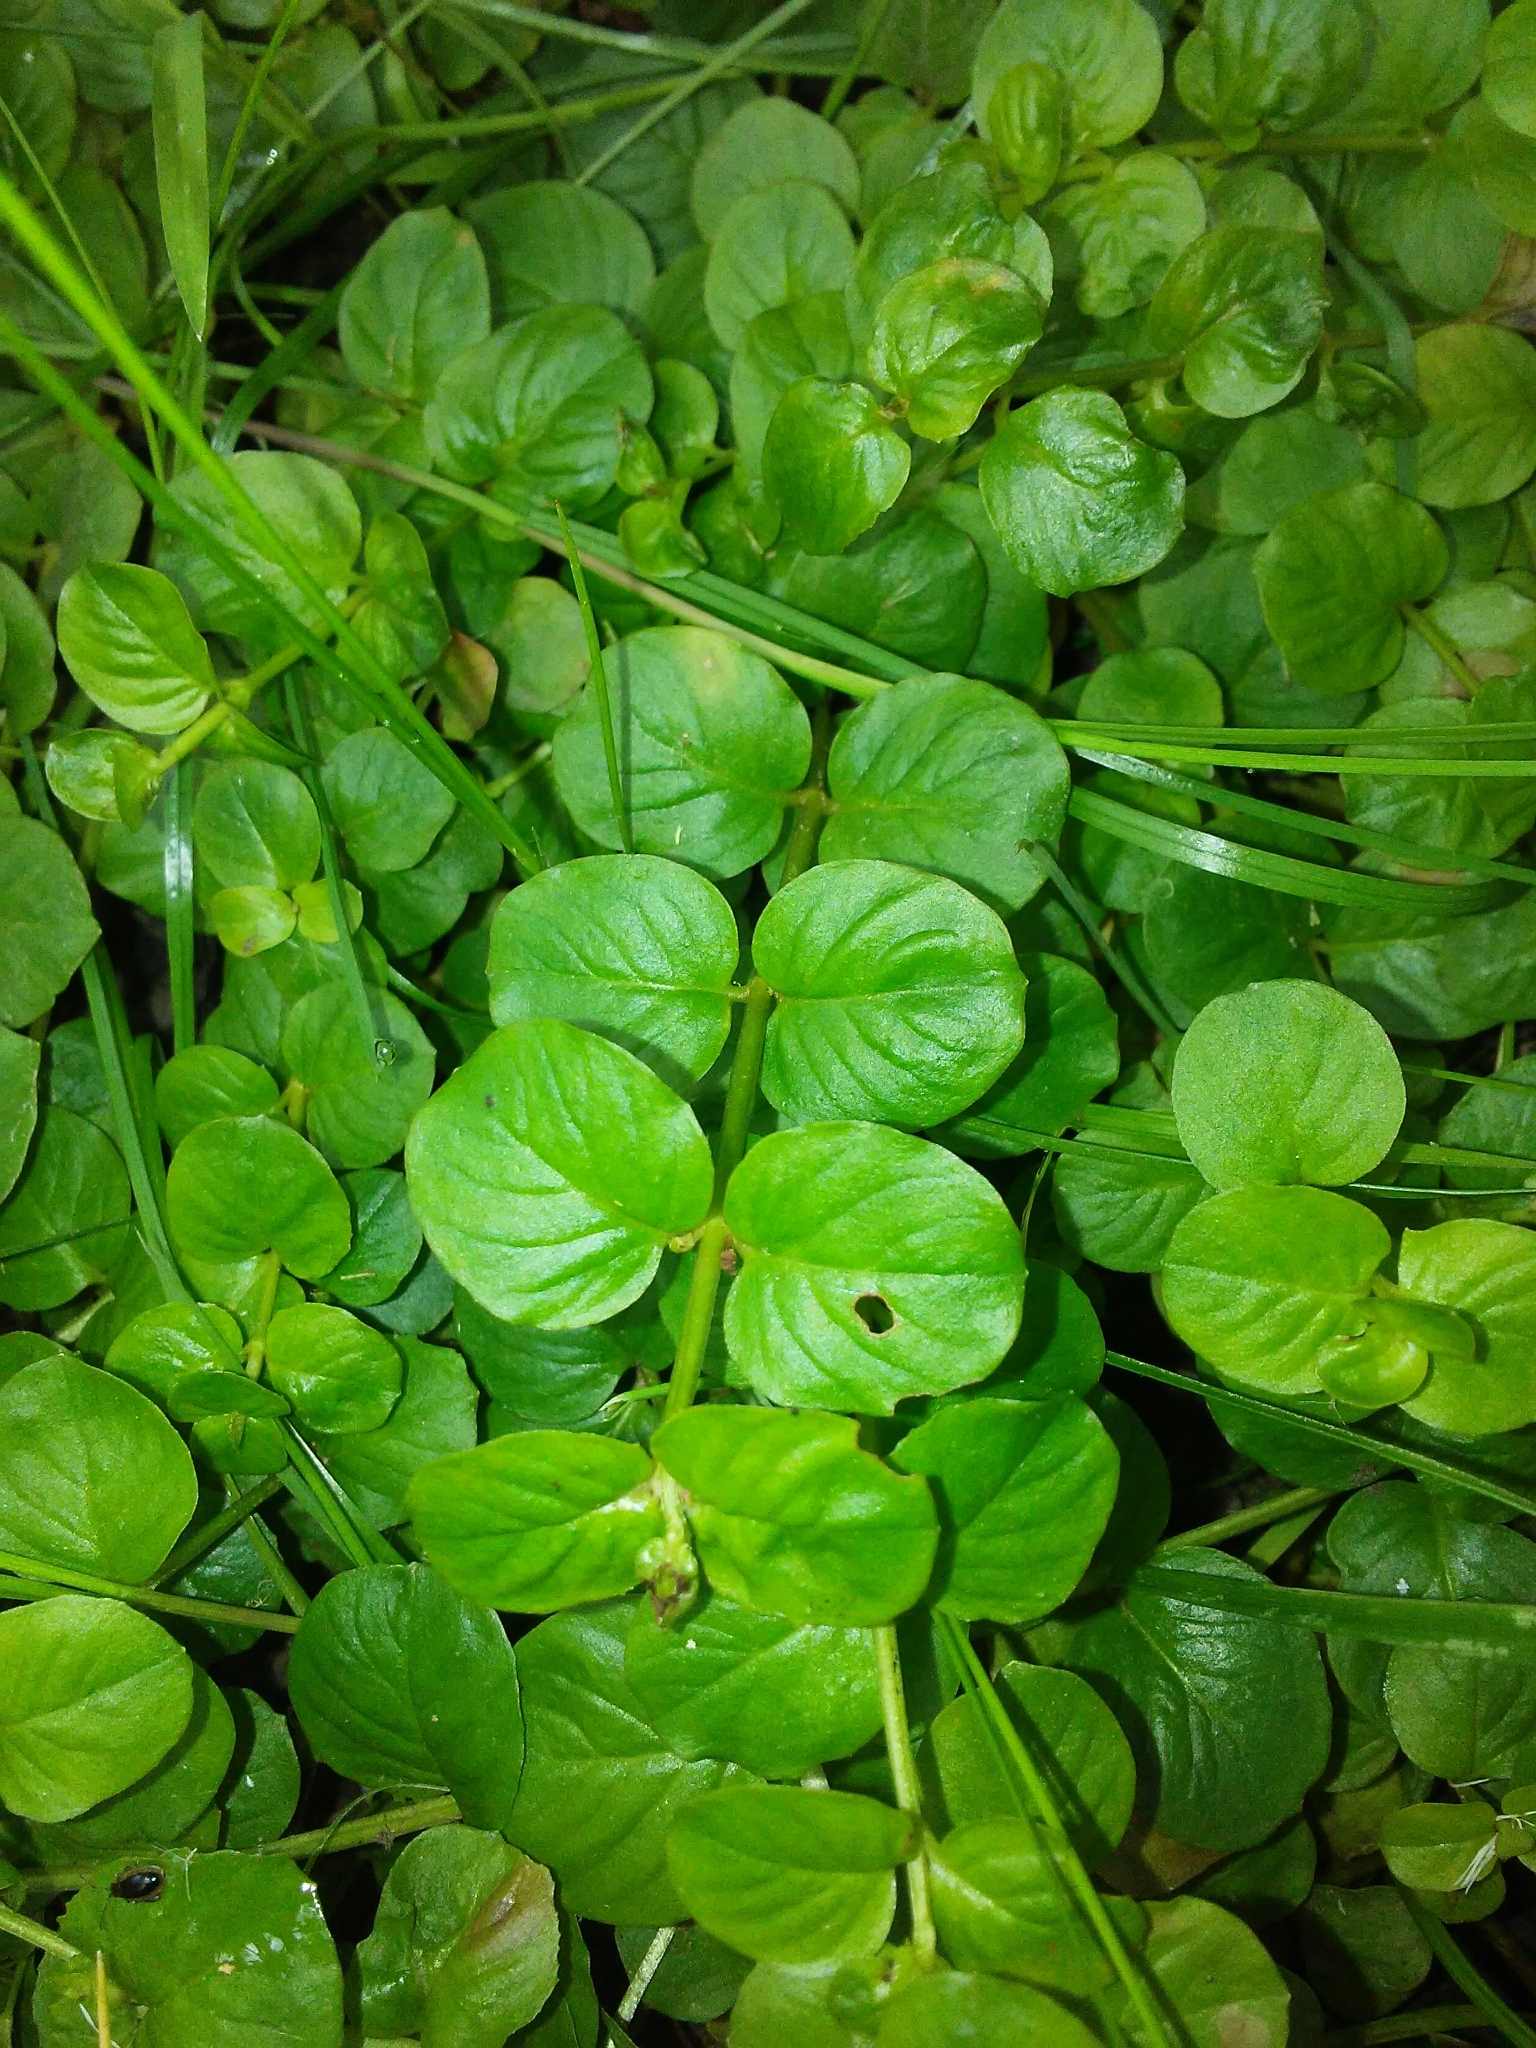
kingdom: Plantae
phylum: Tracheophyta
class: Magnoliopsida
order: Ericales
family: Primulaceae
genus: Lysimachia
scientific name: Lysimachia nummularia
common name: Moneywort
